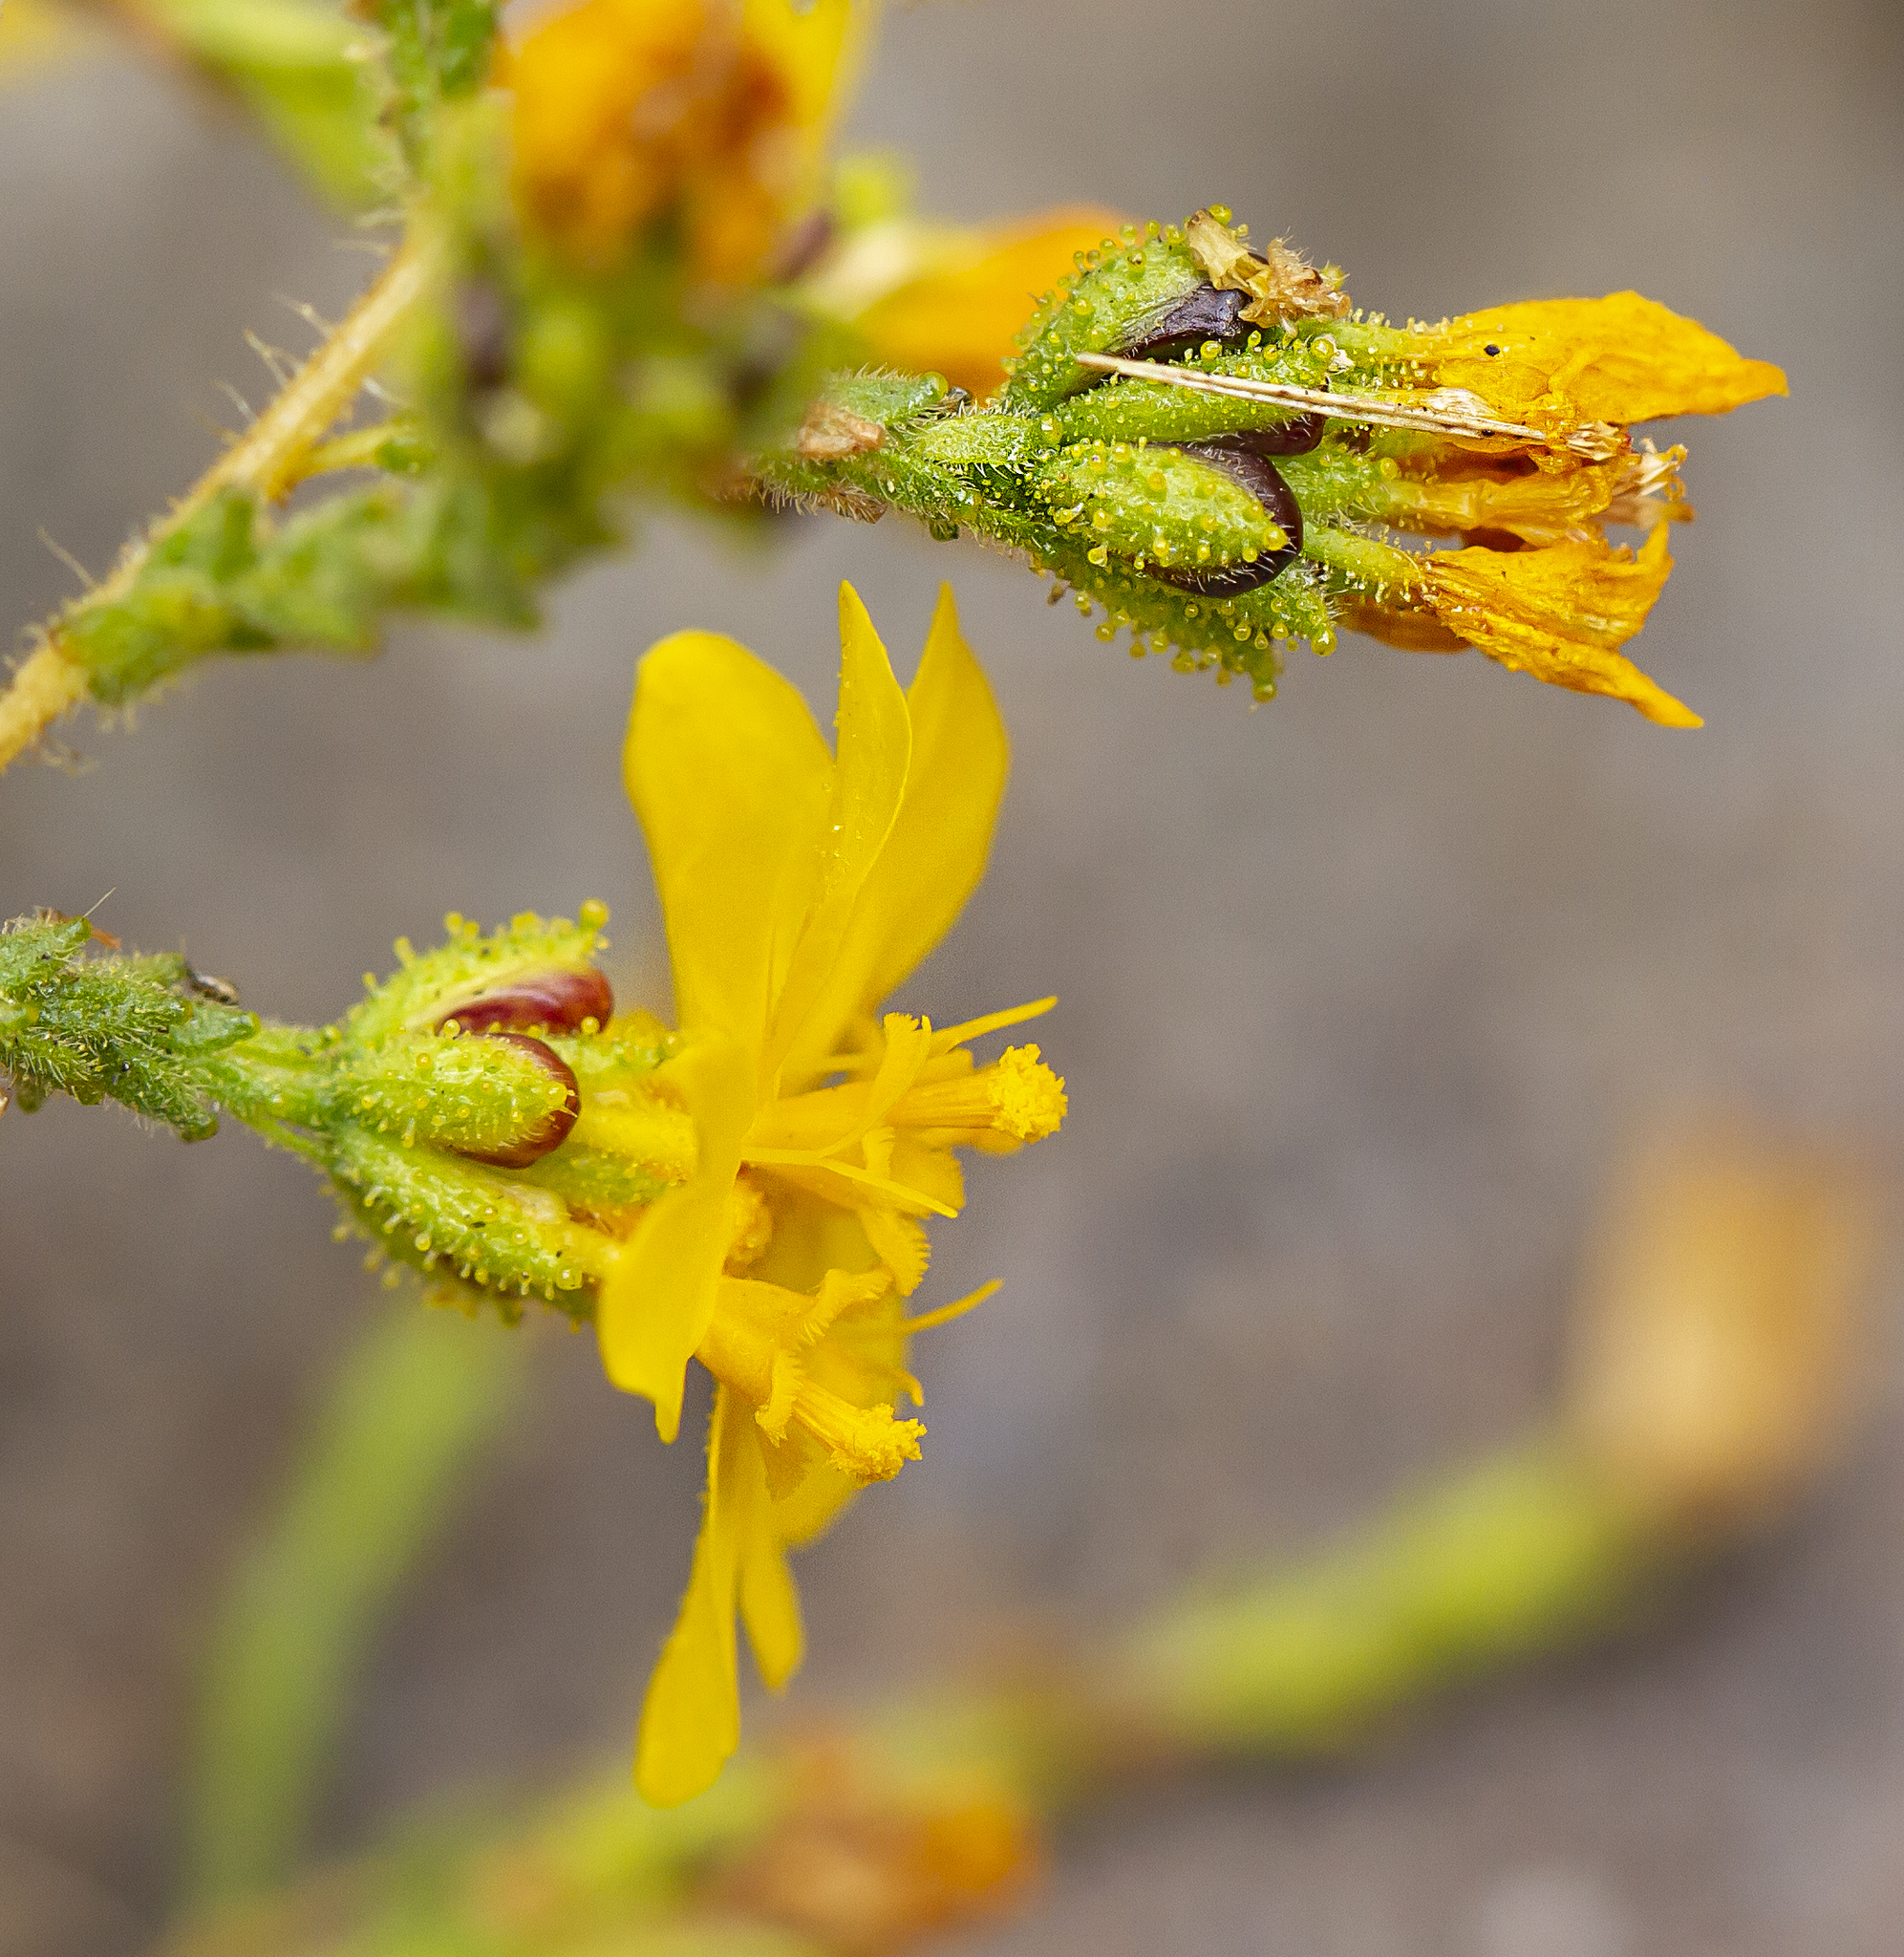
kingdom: Plantae
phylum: Tracheophyta
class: Magnoliopsida
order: Asterales
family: Asteraceae
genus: Holocarpha
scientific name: Holocarpha heermannii
